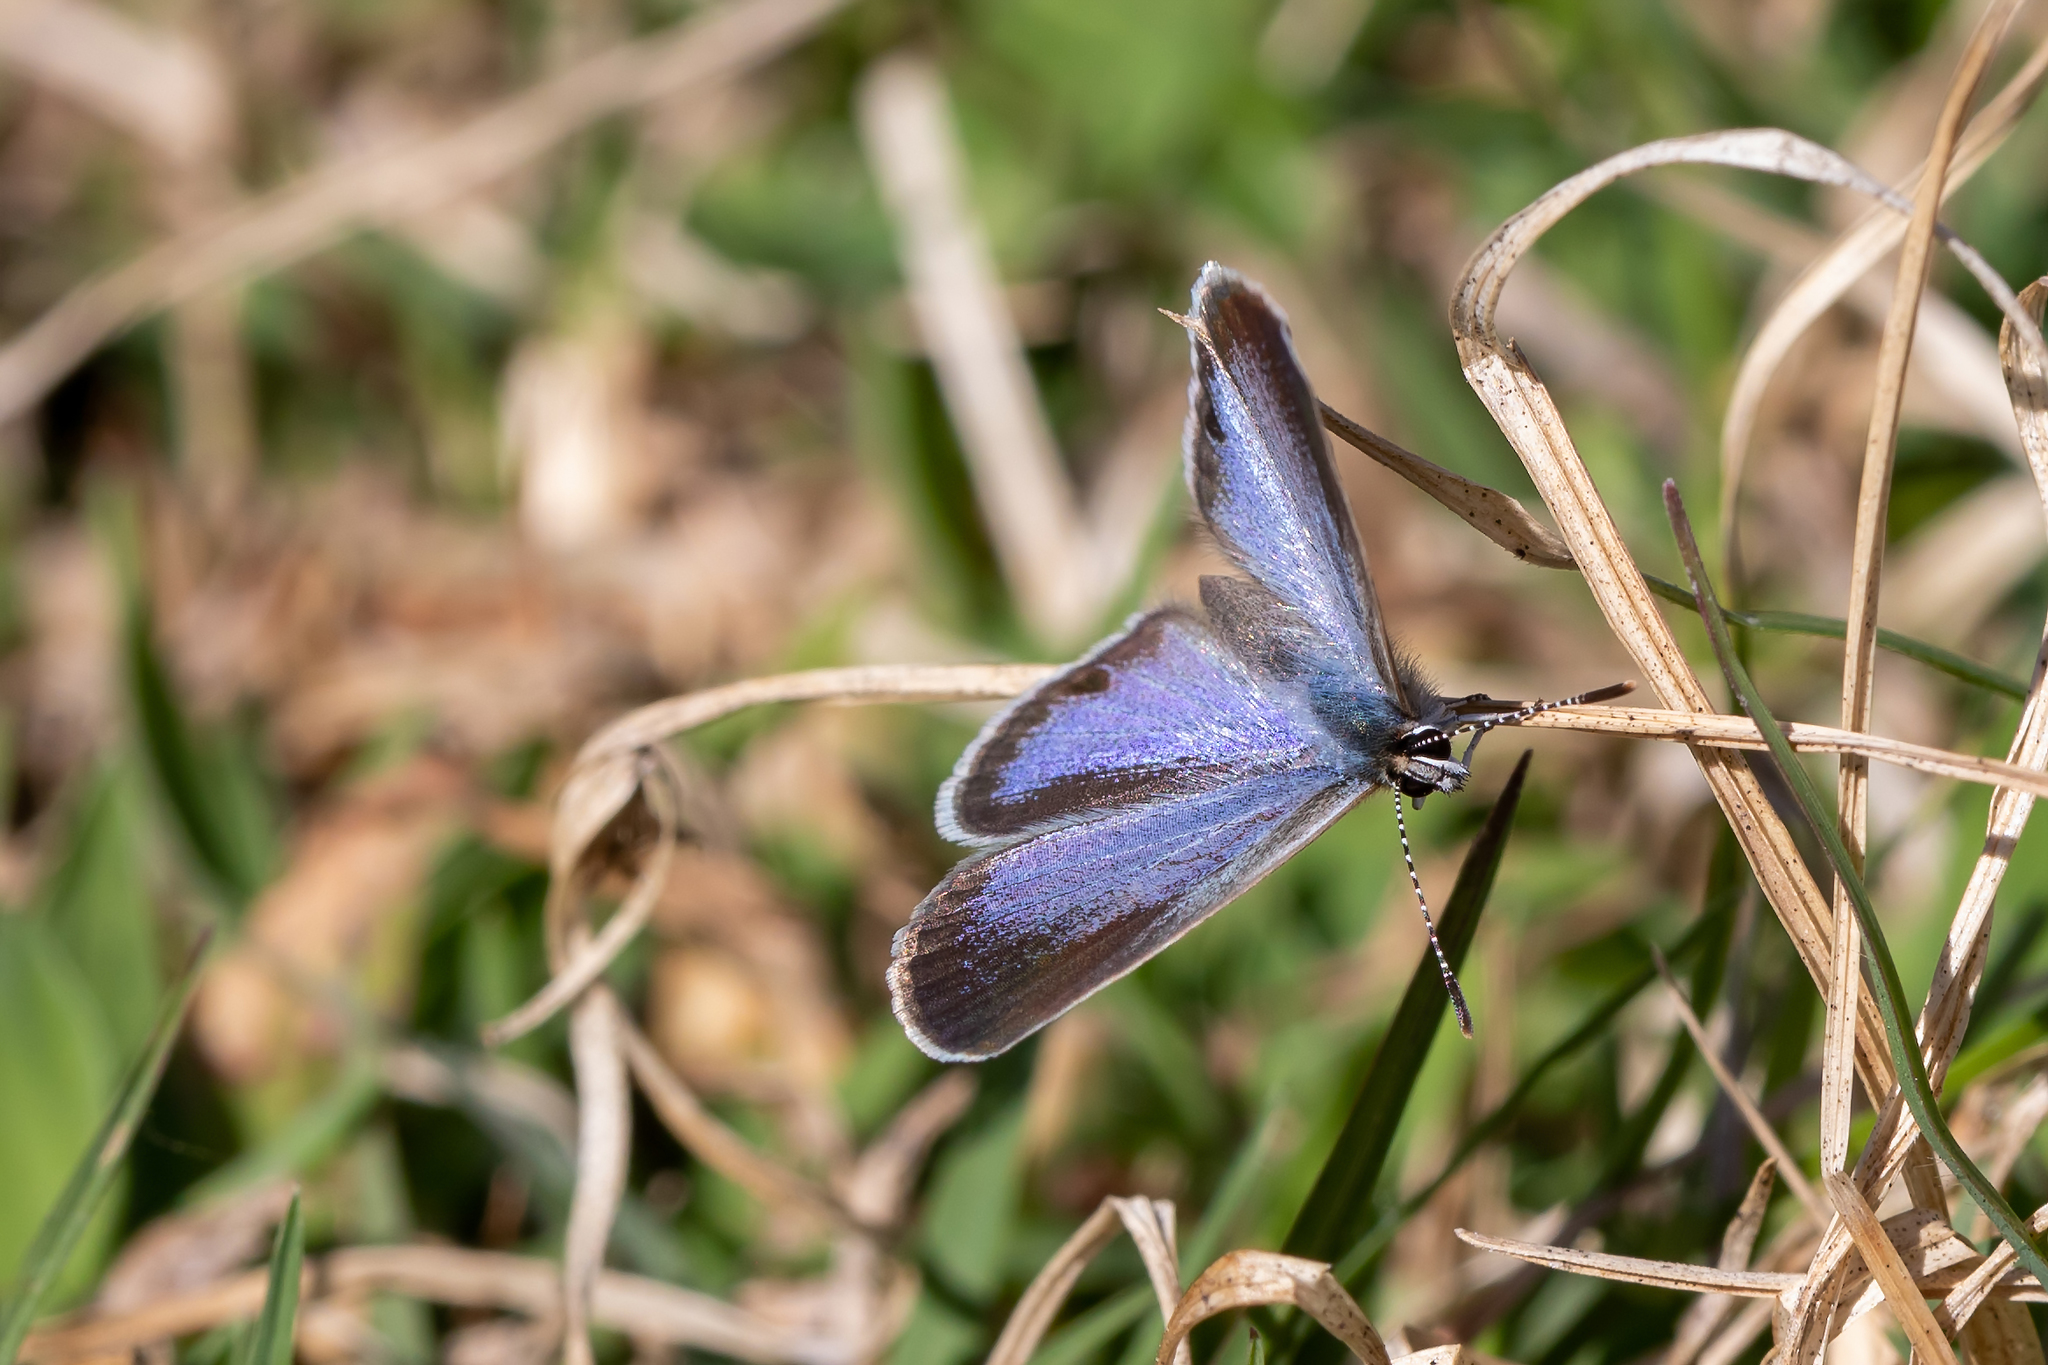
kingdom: Animalia
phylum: Arthropoda
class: Insecta
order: Lepidoptera
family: Lycaenidae
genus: Hemiargus
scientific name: Hemiargus ceraunus
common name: Ceraunus blue
